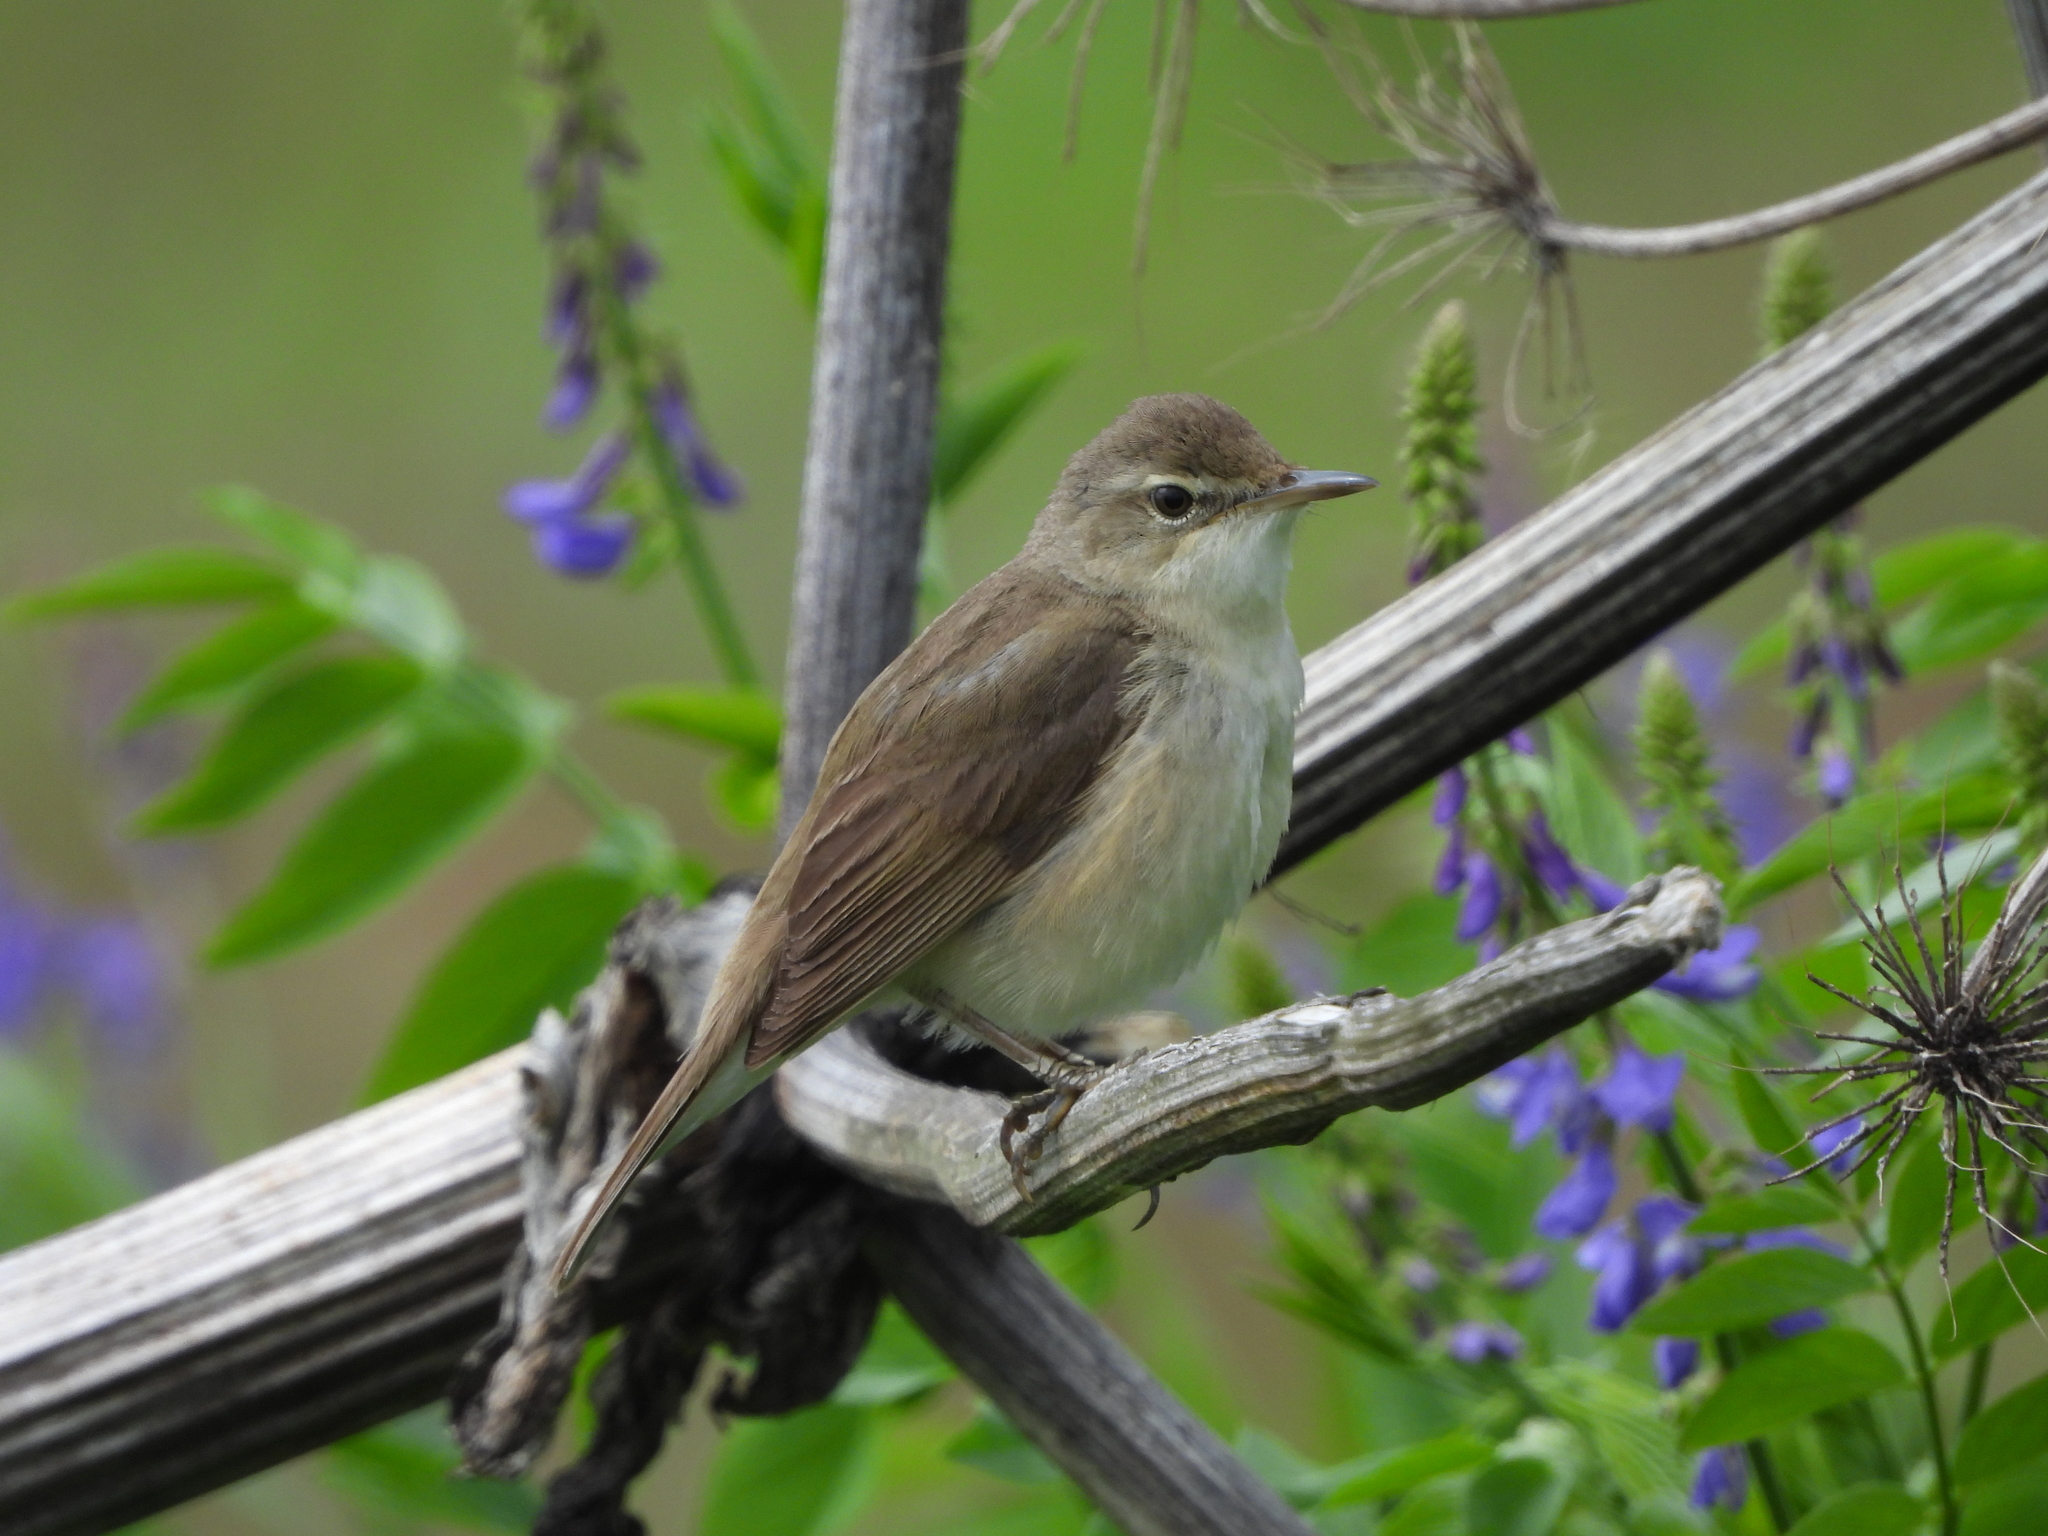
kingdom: Animalia
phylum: Chordata
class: Aves
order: Passeriformes
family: Acrocephalidae
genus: Acrocephalus
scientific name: Acrocephalus dumetorum
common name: Blyth's reed warbler
